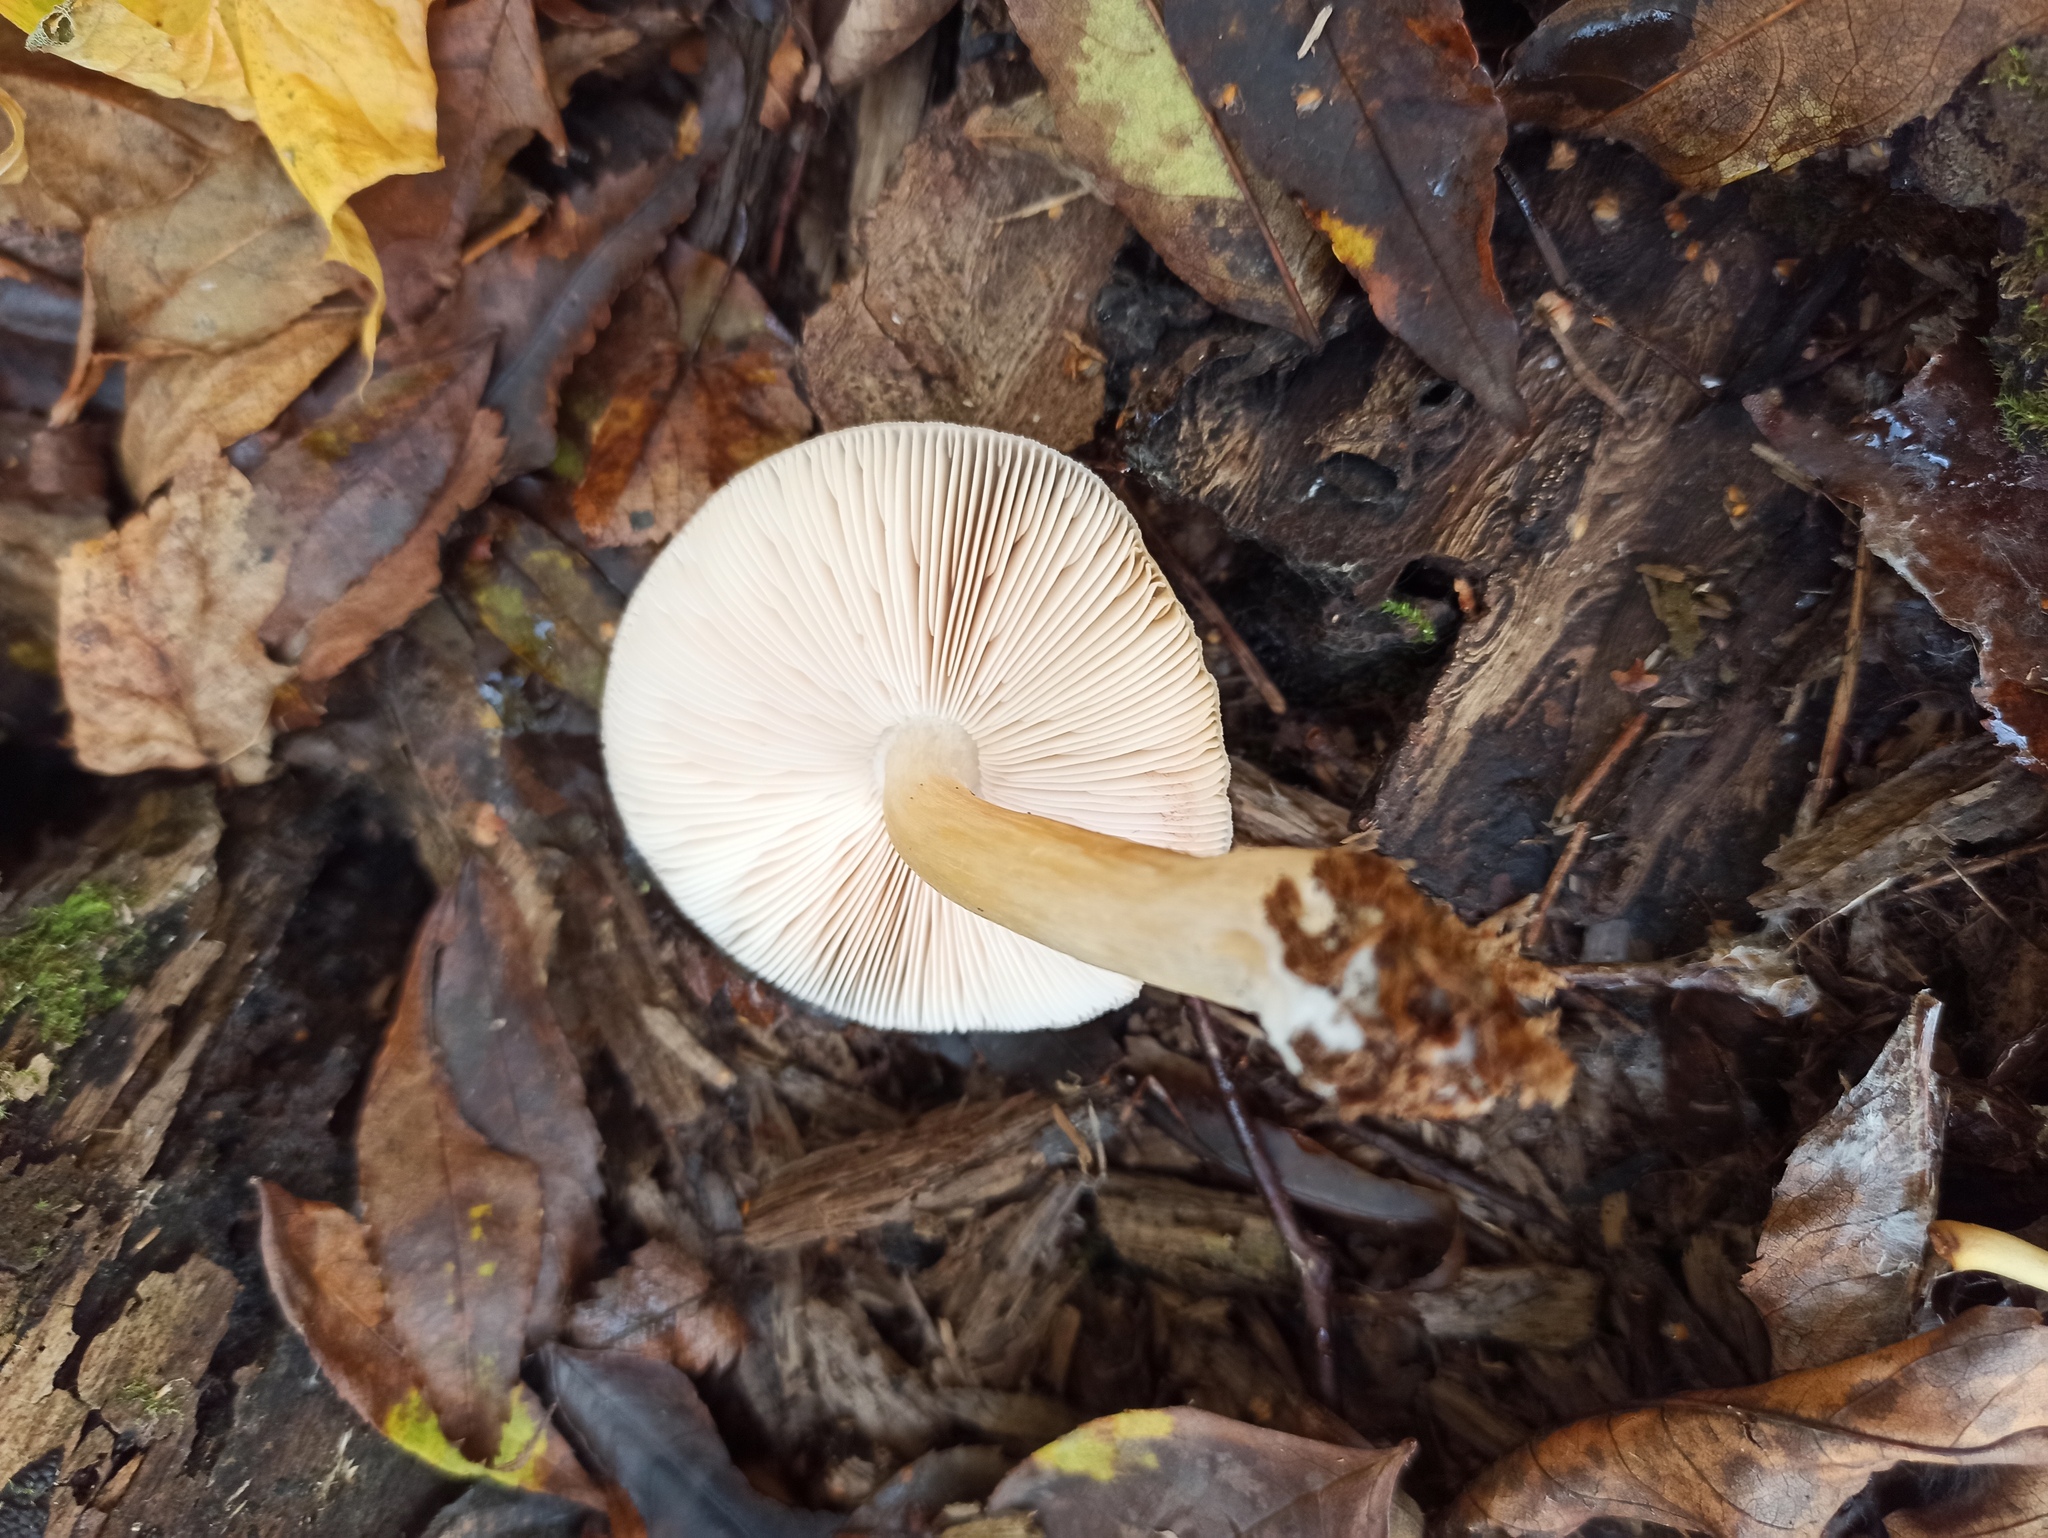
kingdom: Fungi
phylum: Basidiomycota
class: Agaricomycetes
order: Agaricales
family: Pluteaceae
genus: Pluteus
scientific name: Pluteus salicinus
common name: Willow shield
